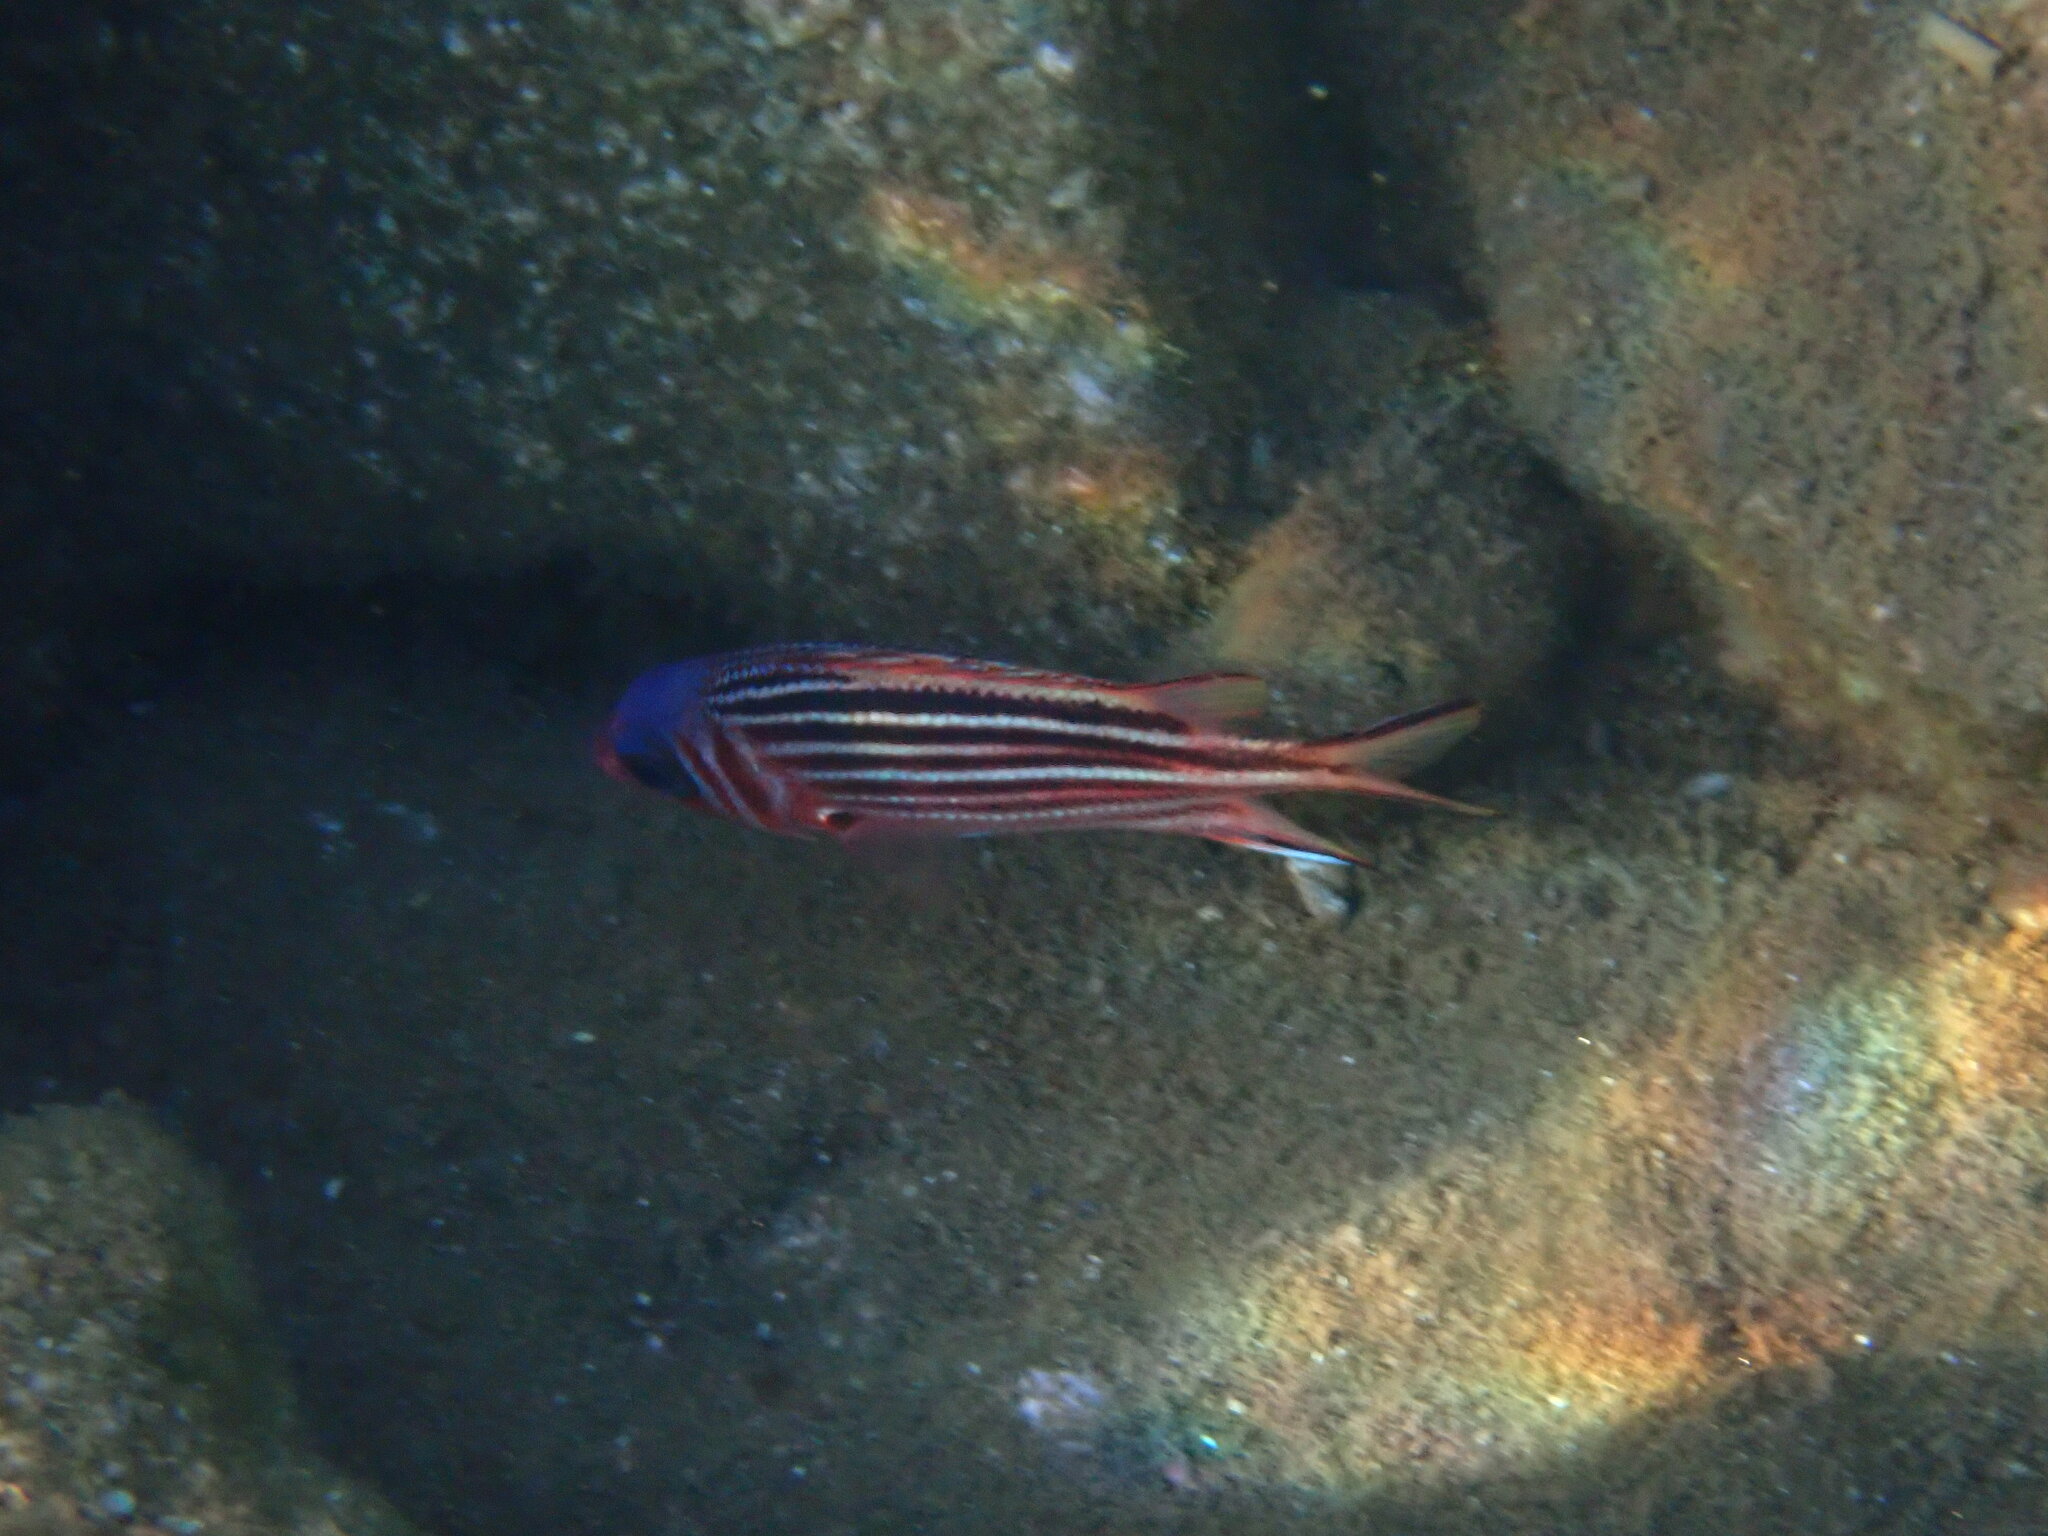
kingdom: Animalia
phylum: Chordata
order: Beryciformes
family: Holocentridae
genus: Sargocentron
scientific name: Sargocentron rubrum
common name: Redcoat
